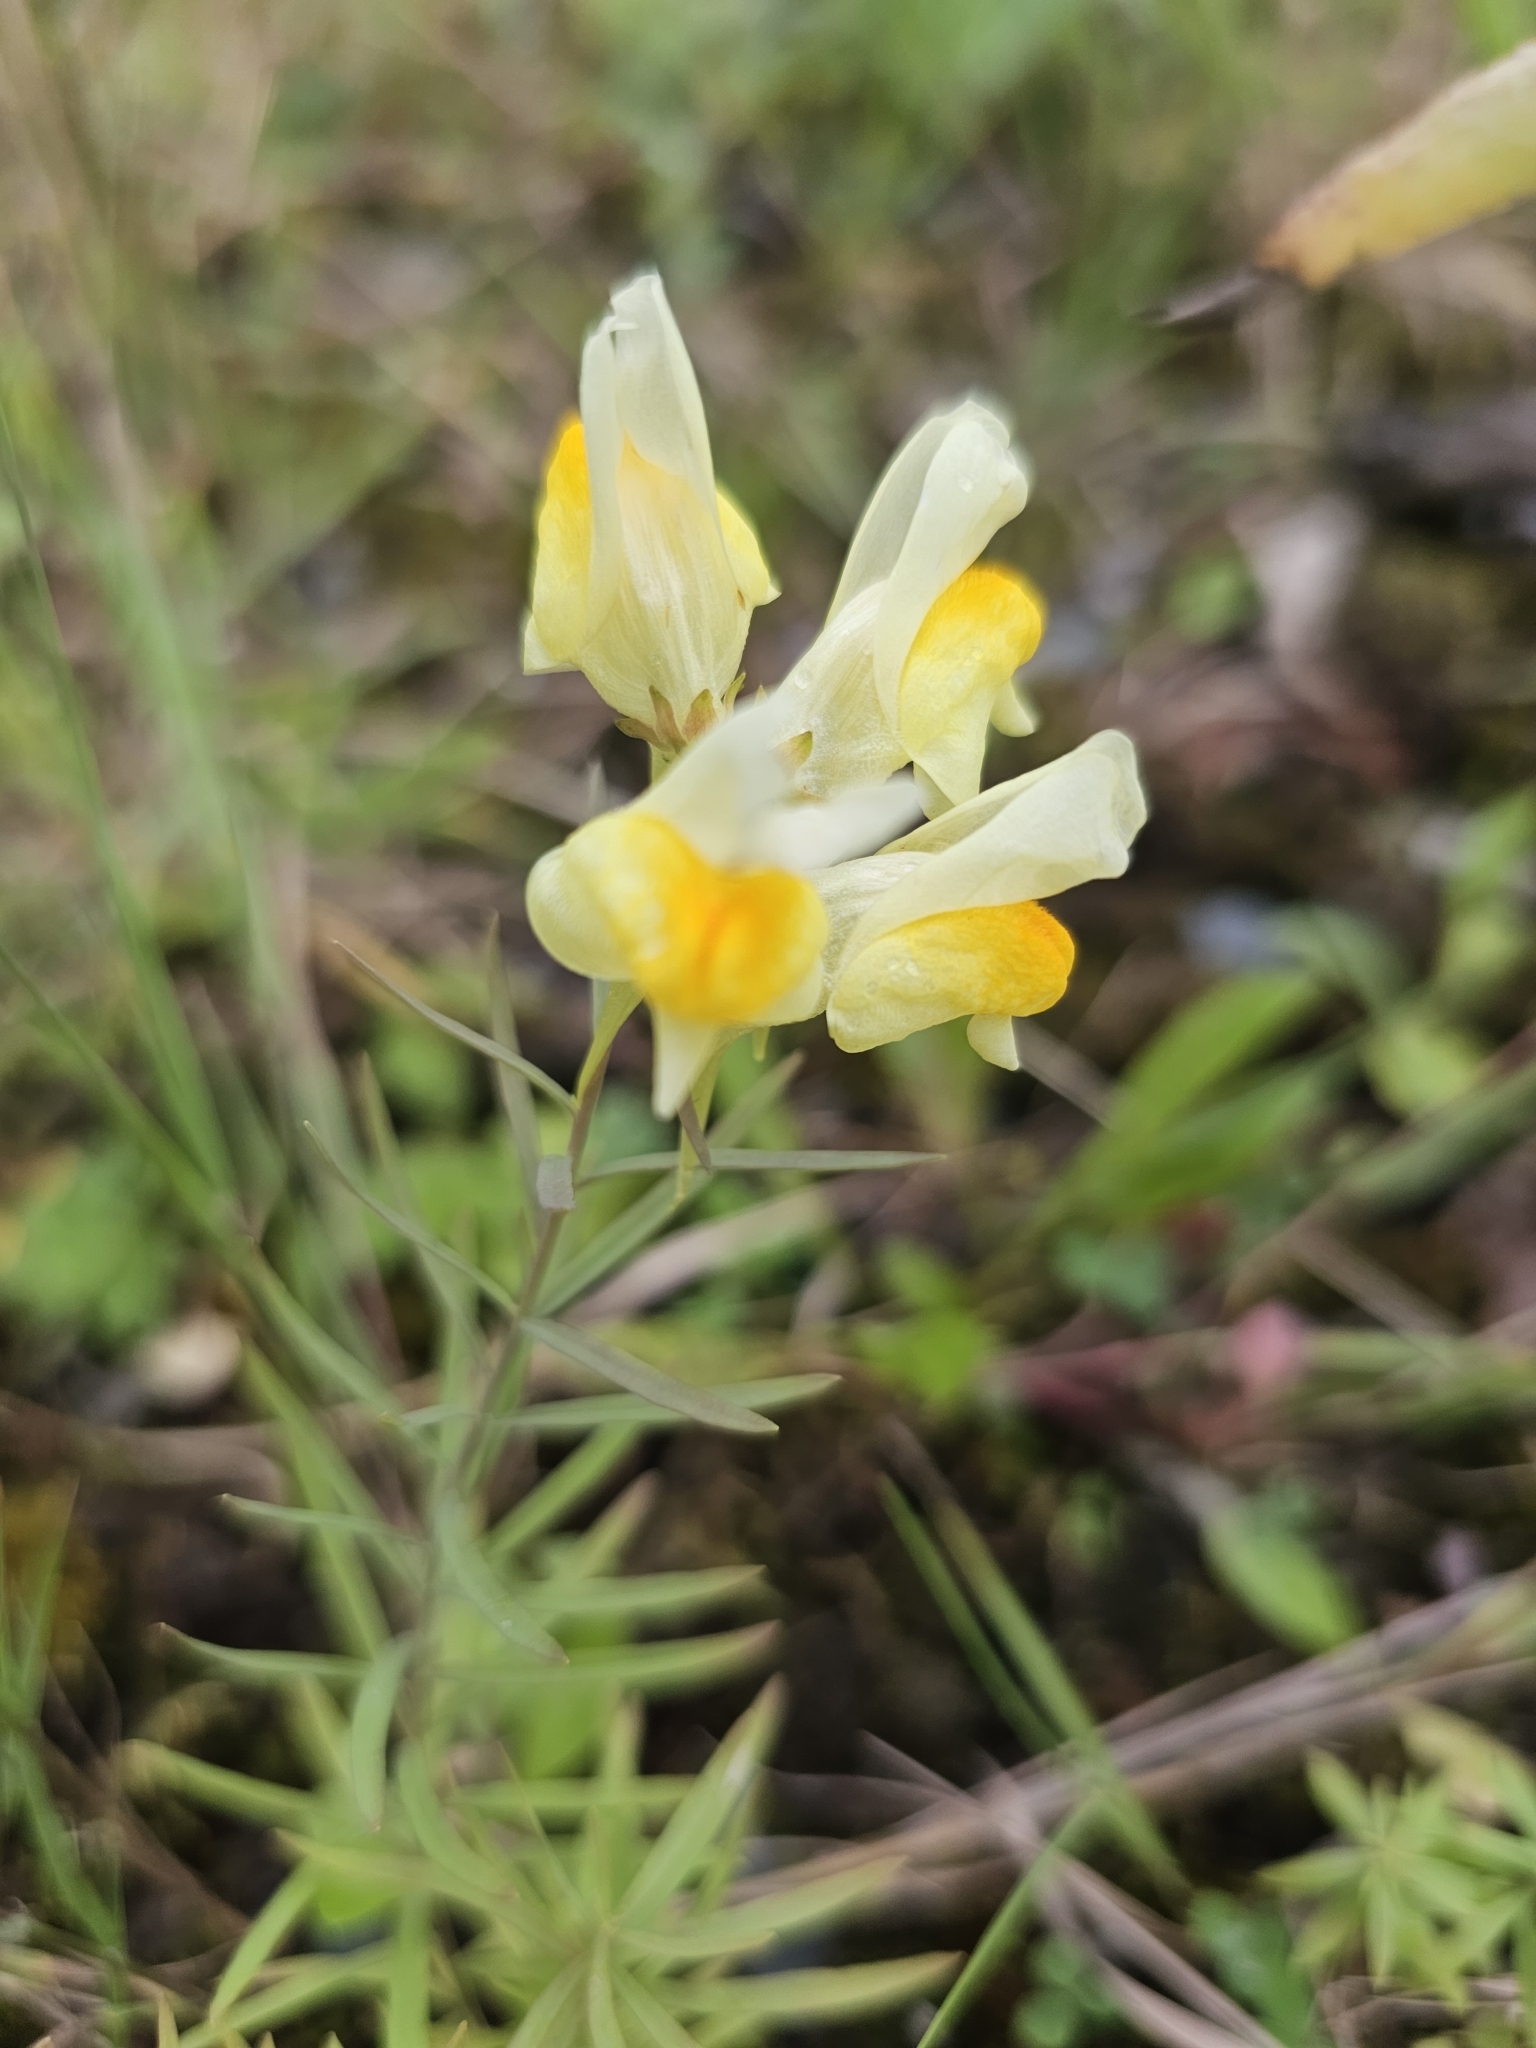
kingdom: Plantae
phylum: Tracheophyta
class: Magnoliopsida
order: Lamiales
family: Plantaginaceae
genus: Linaria
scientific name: Linaria vulgaris
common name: Butter and eggs
